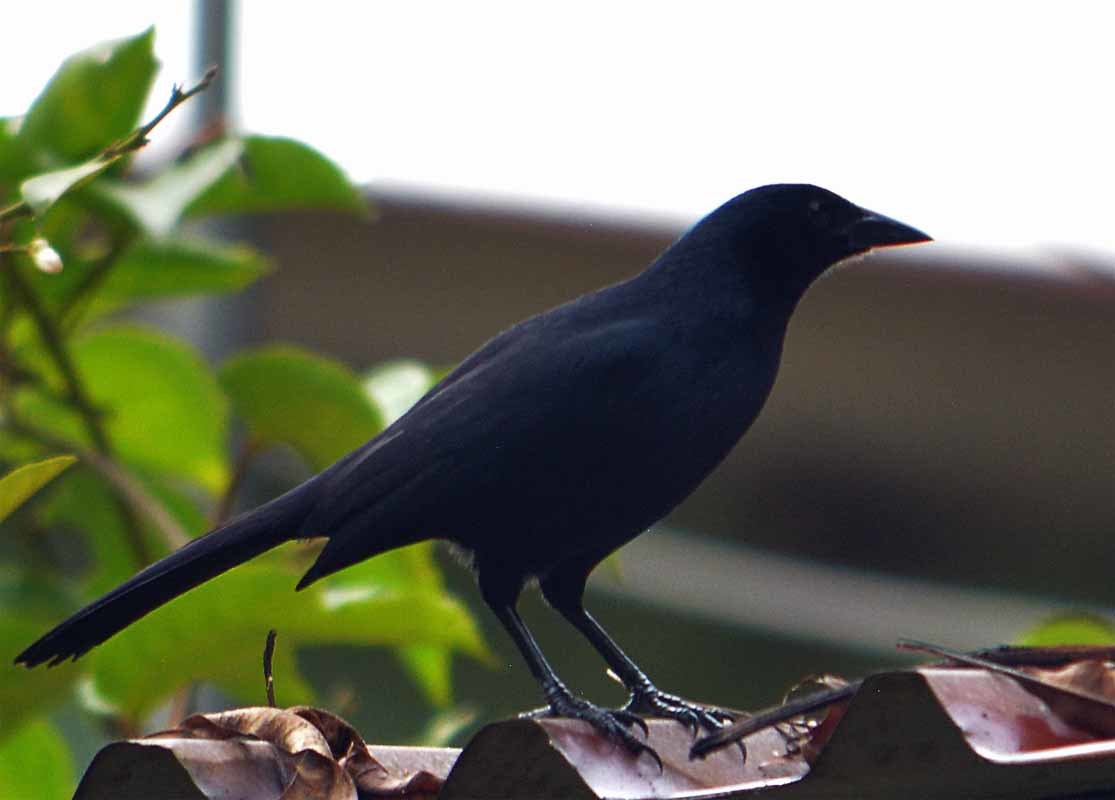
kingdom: Animalia
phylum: Chordata
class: Aves
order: Passeriformes
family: Icteridae
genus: Dives
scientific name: Dives dives
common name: Melodious blackbird
